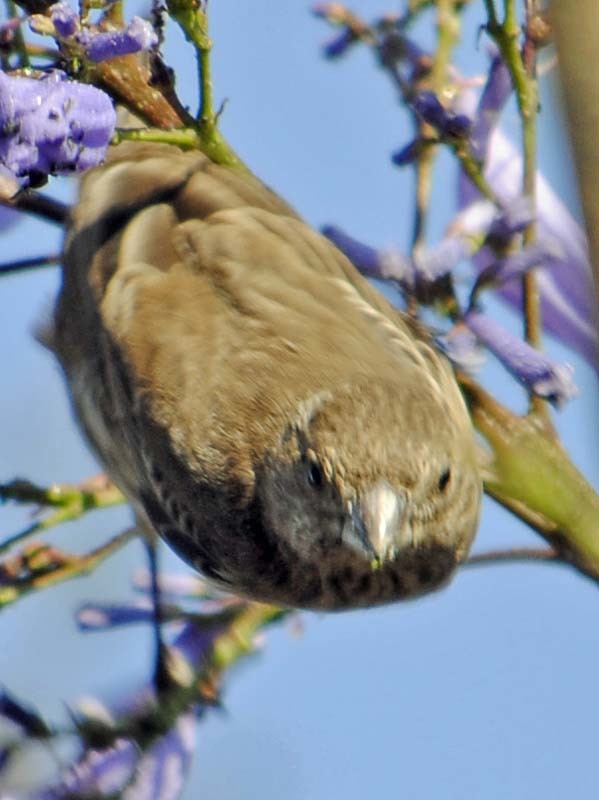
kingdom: Animalia
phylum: Chordata
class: Aves
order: Passeriformes
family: Fringillidae
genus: Haemorhous
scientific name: Haemorhous mexicanus
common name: House finch
